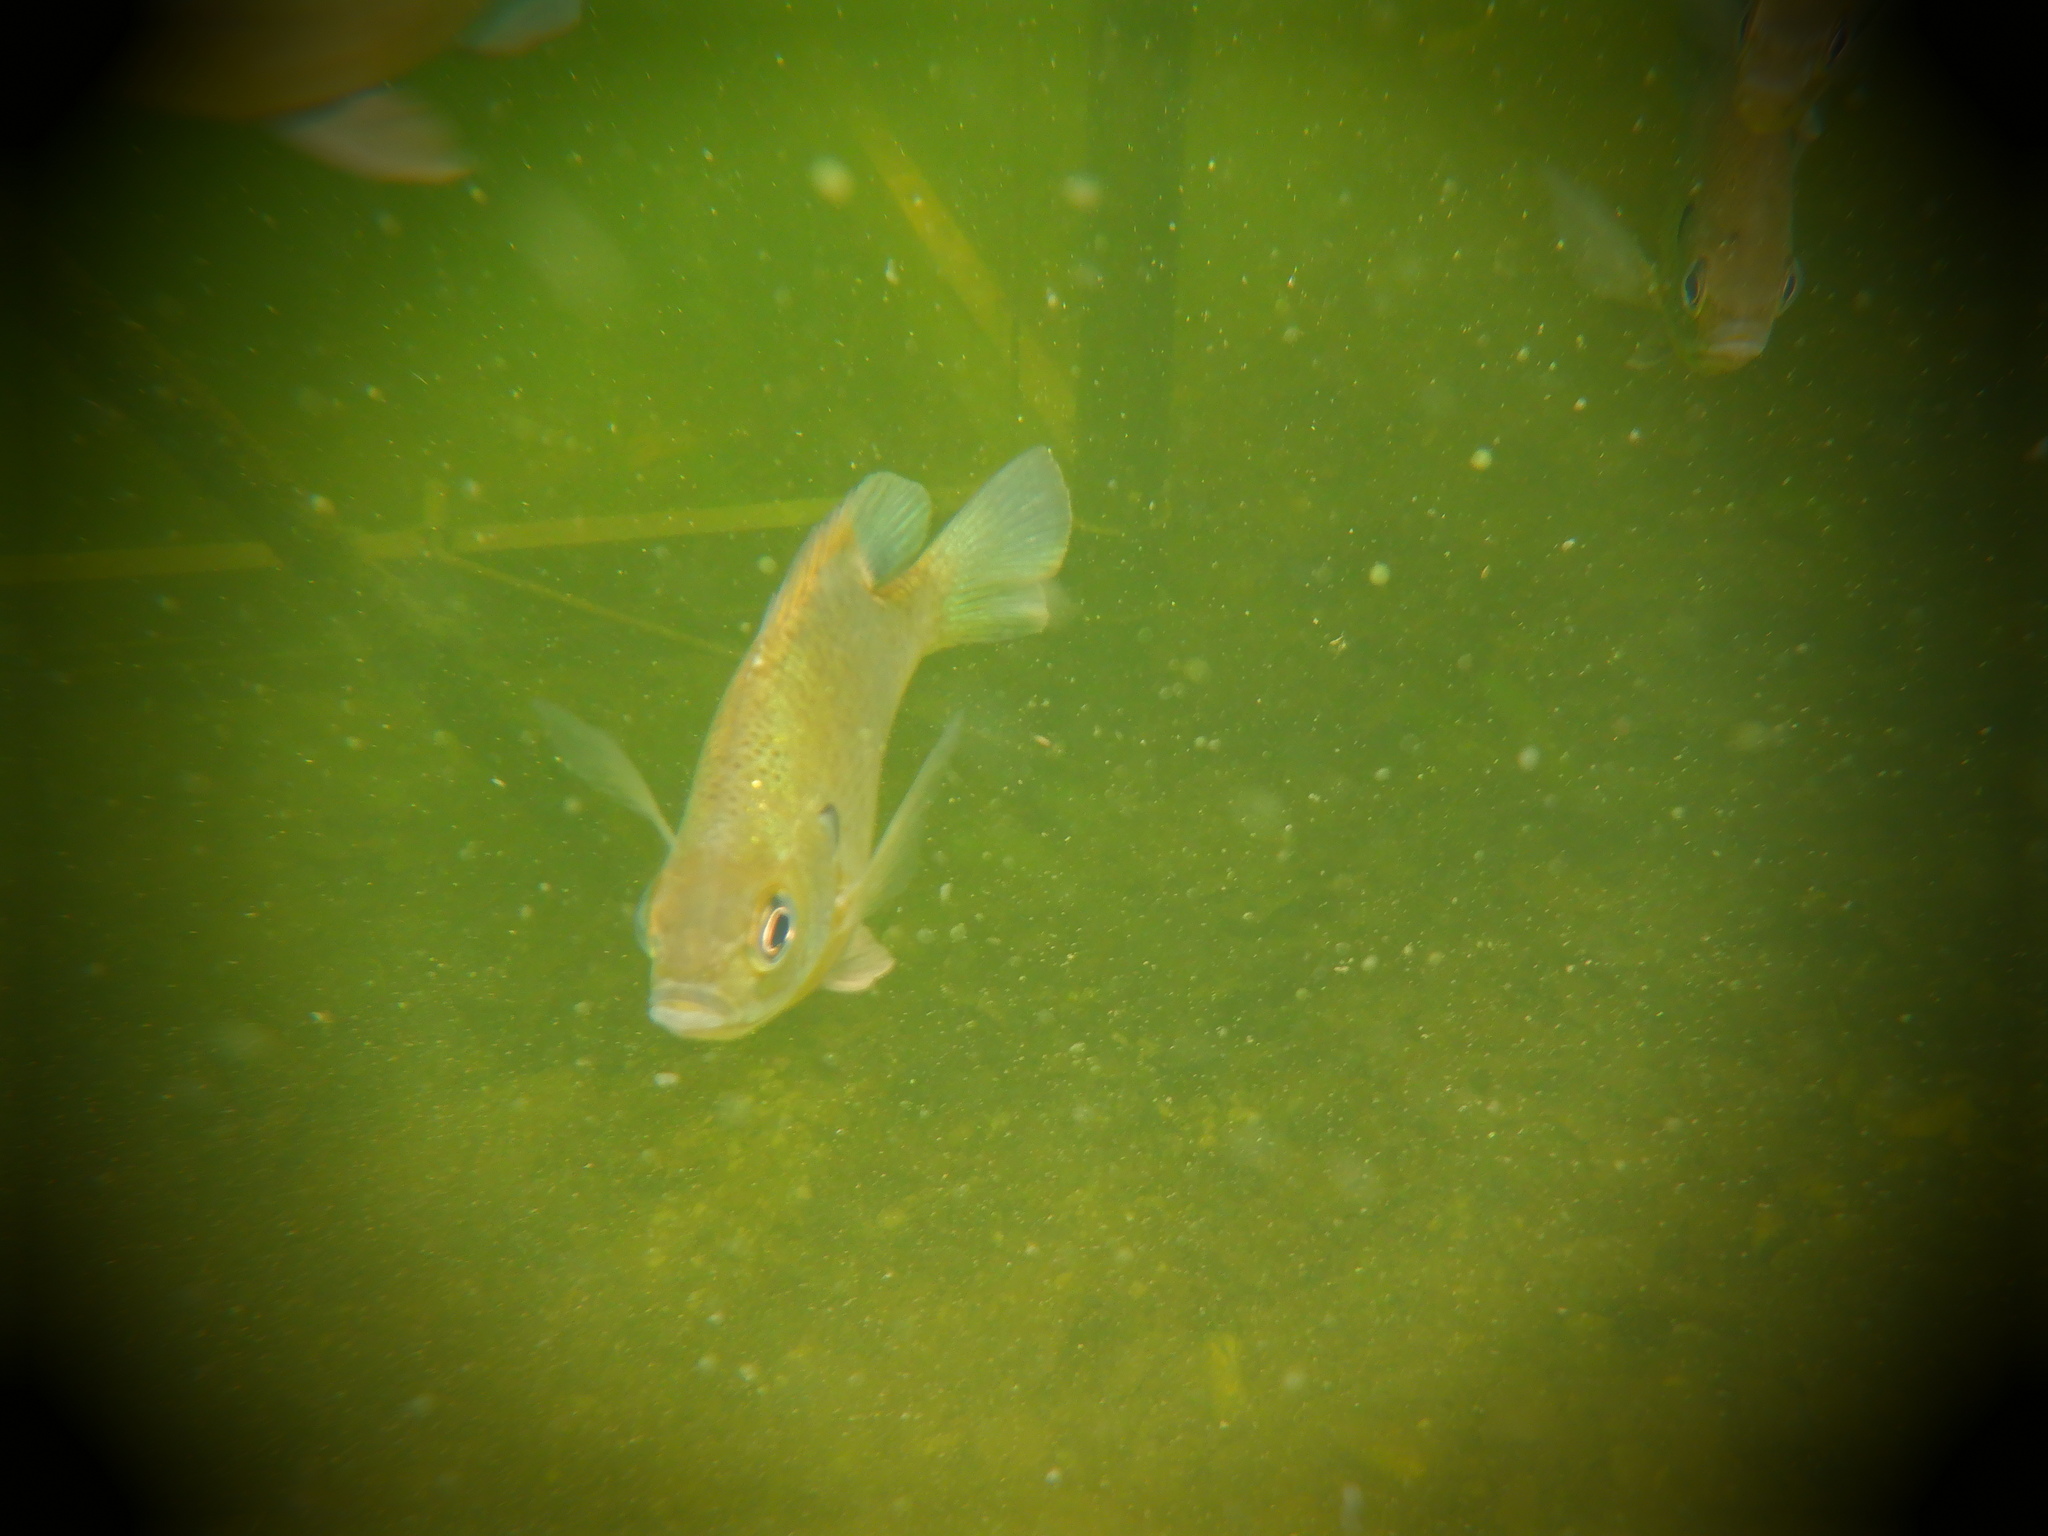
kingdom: Animalia
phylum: Chordata
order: Perciformes
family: Centrarchidae
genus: Lepomis
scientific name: Lepomis macrochirus
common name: Bluegill
